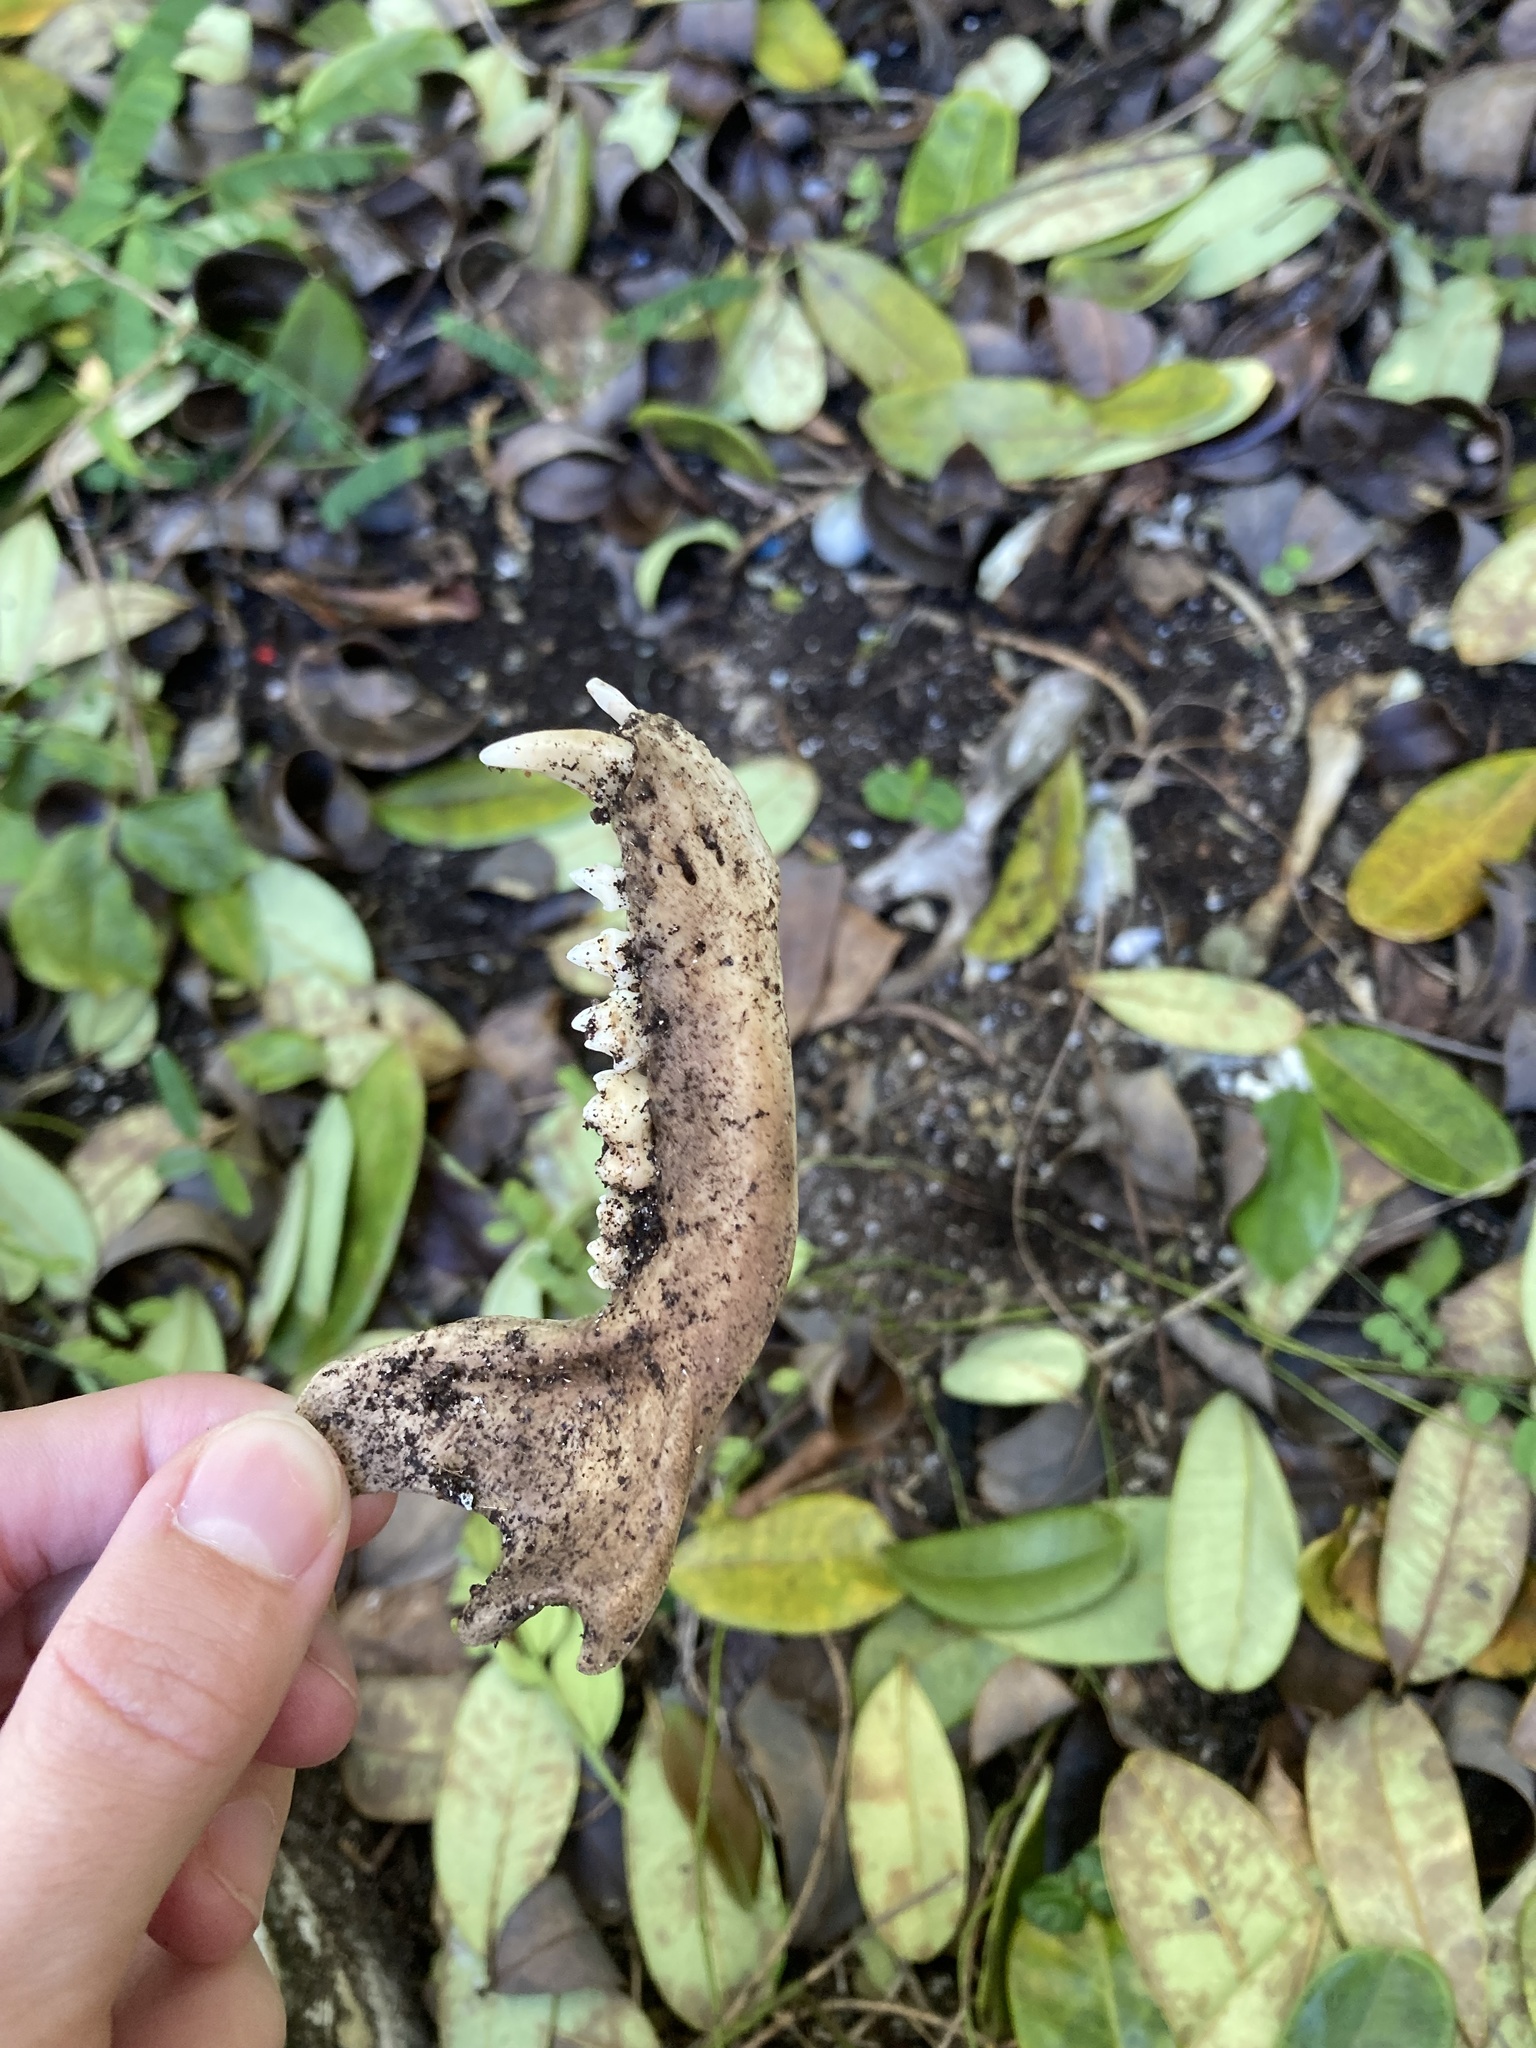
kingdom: Animalia
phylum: Chordata
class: Mammalia
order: Carnivora
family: Procyonidae
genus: Procyon
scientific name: Procyon lotor
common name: Raccoon
